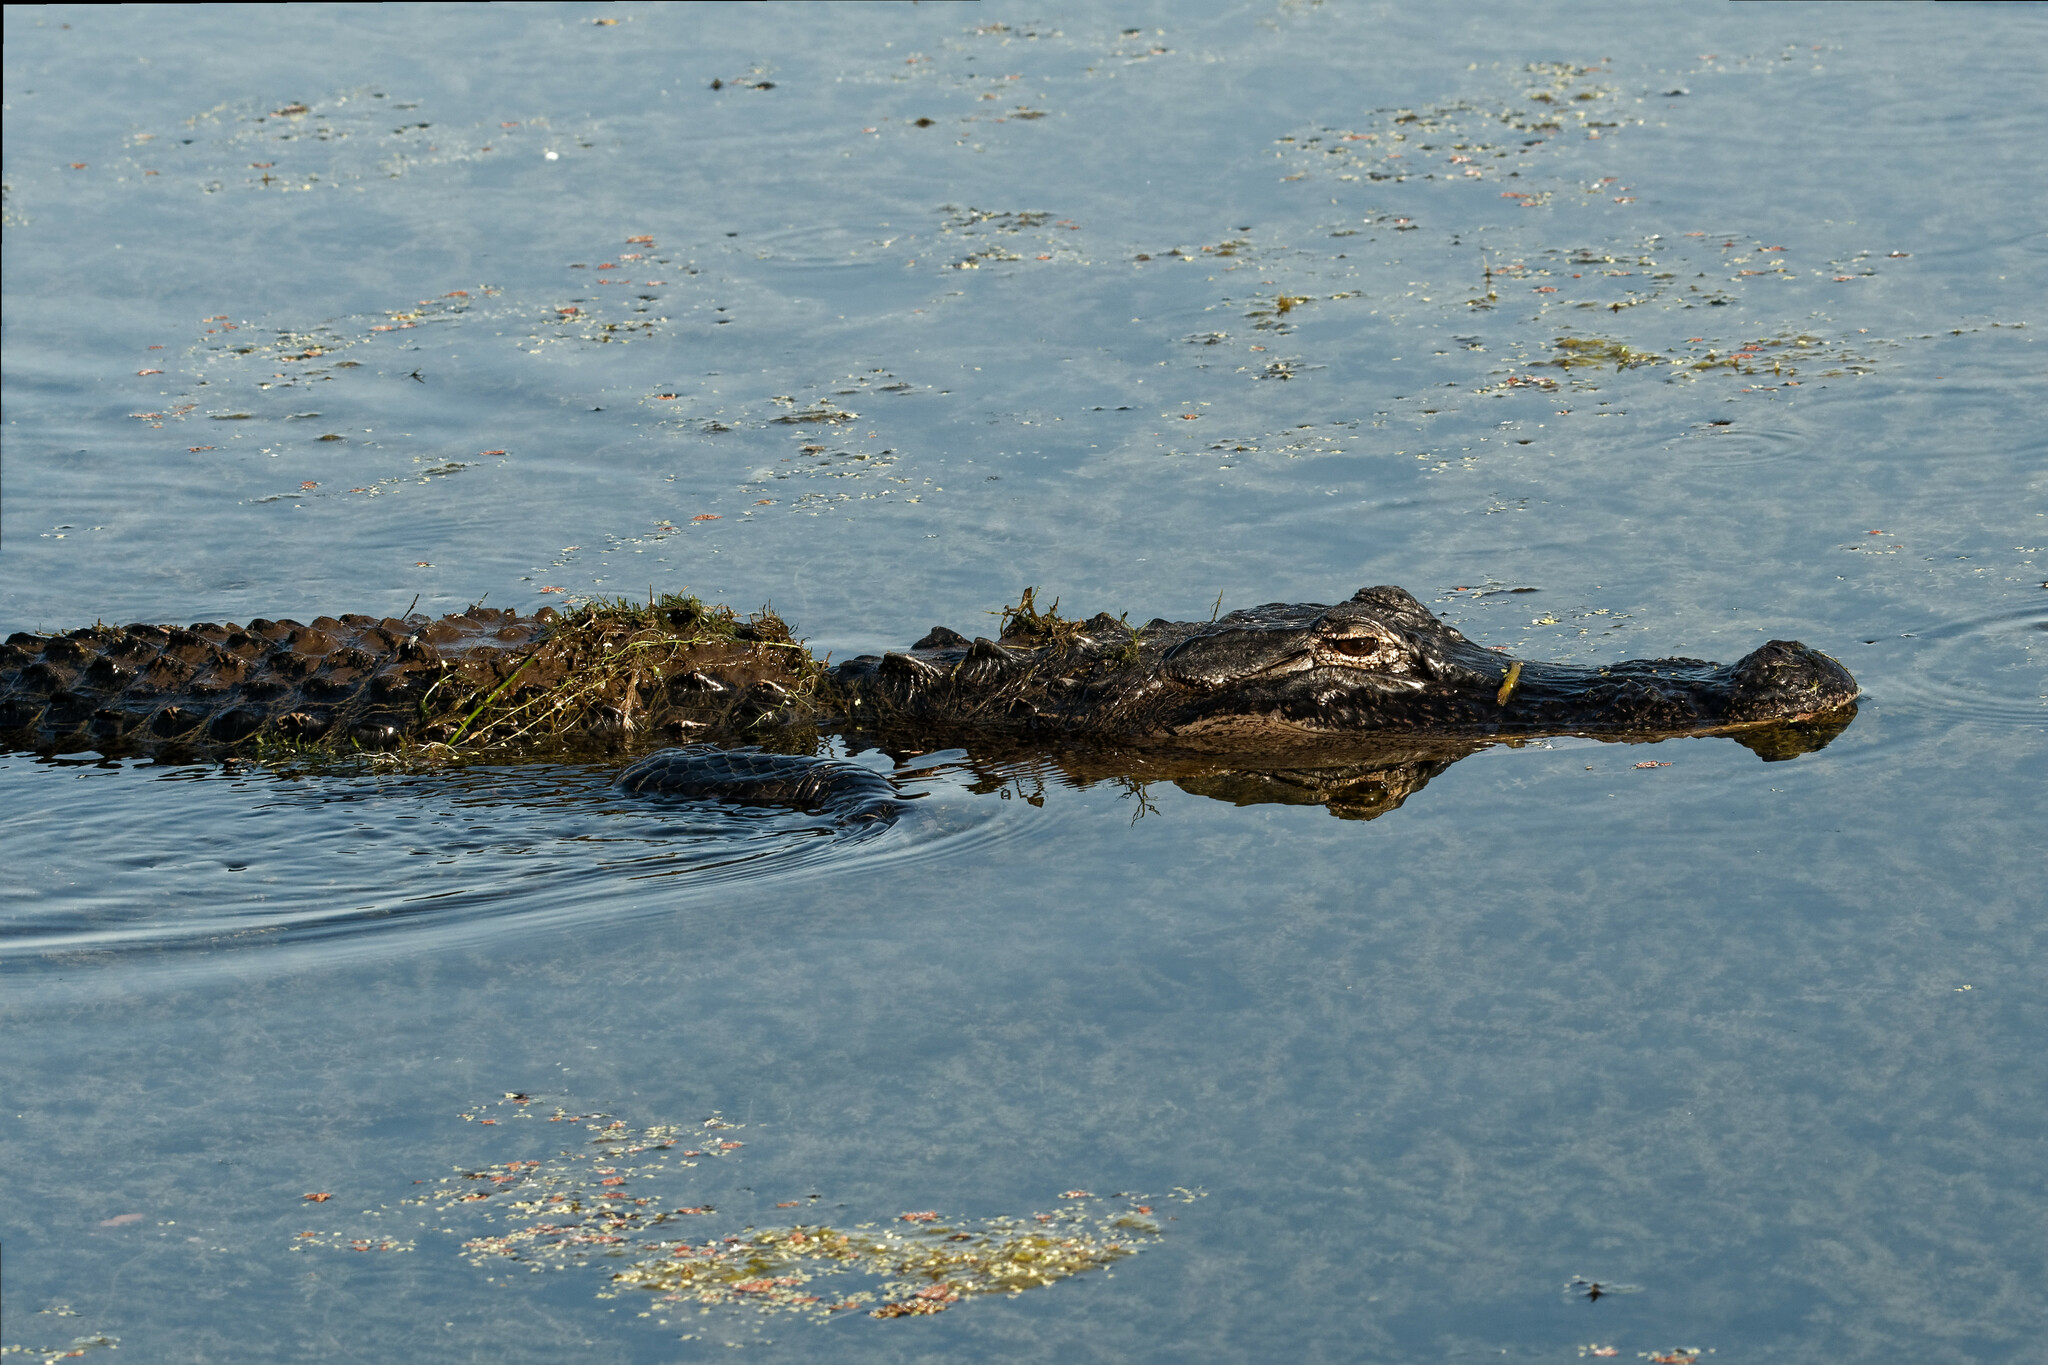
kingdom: Animalia
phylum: Chordata
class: Crocodylia
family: Alligatoridae
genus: Alligator
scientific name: Alligator mississippiensis
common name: American alligator
